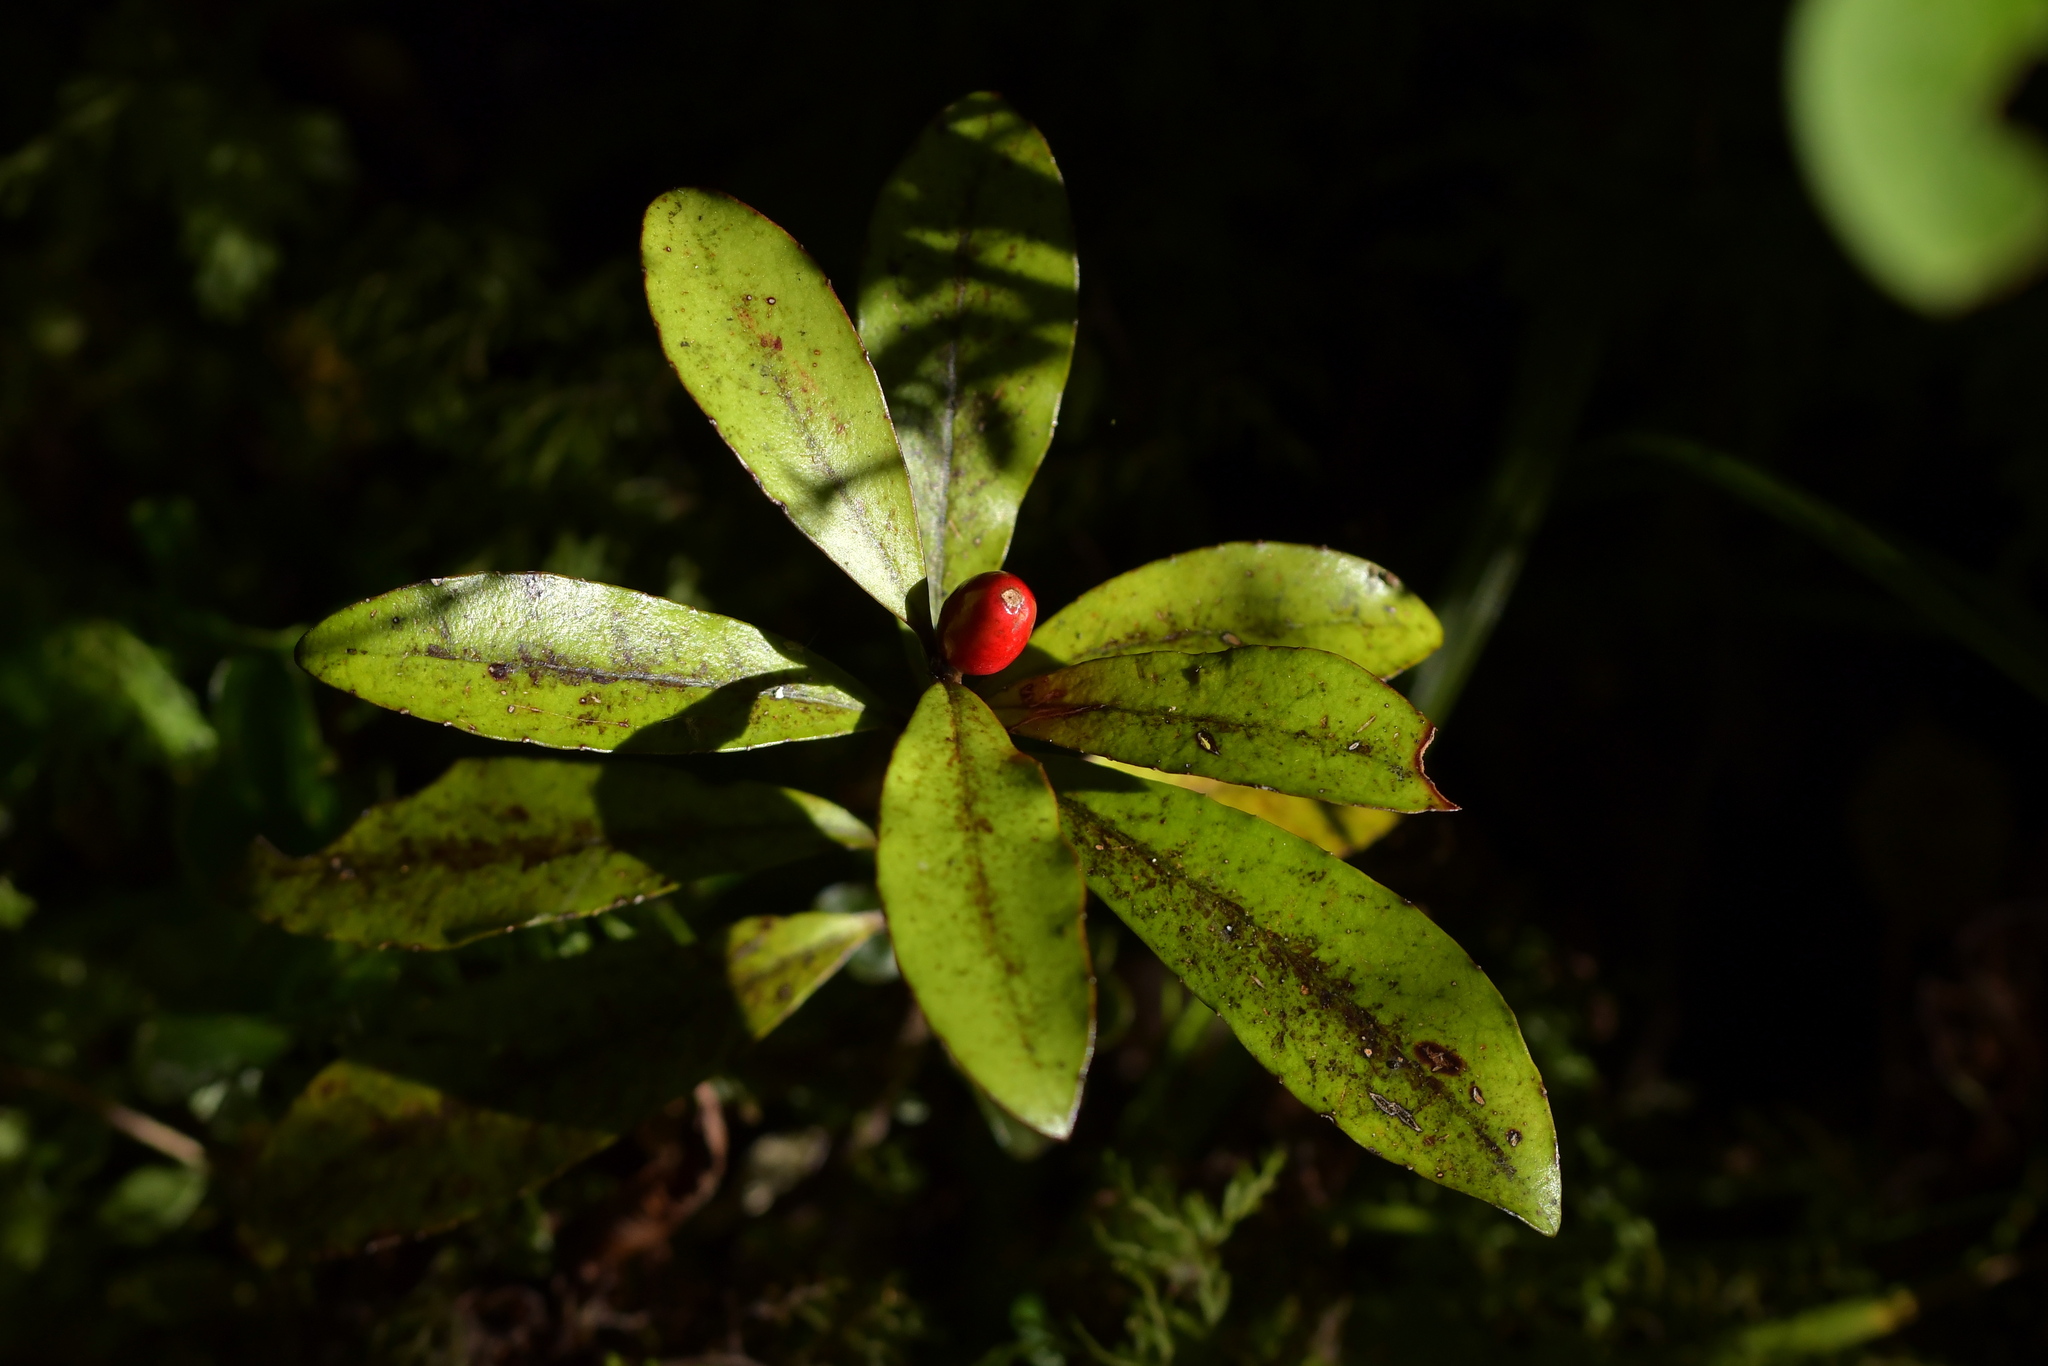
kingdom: Plantae
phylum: Tracheophyta
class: Magnoliopsida
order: Asterales
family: Alseuosmiaceae
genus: Alseuosmia
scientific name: Alseuosmia pusilla
